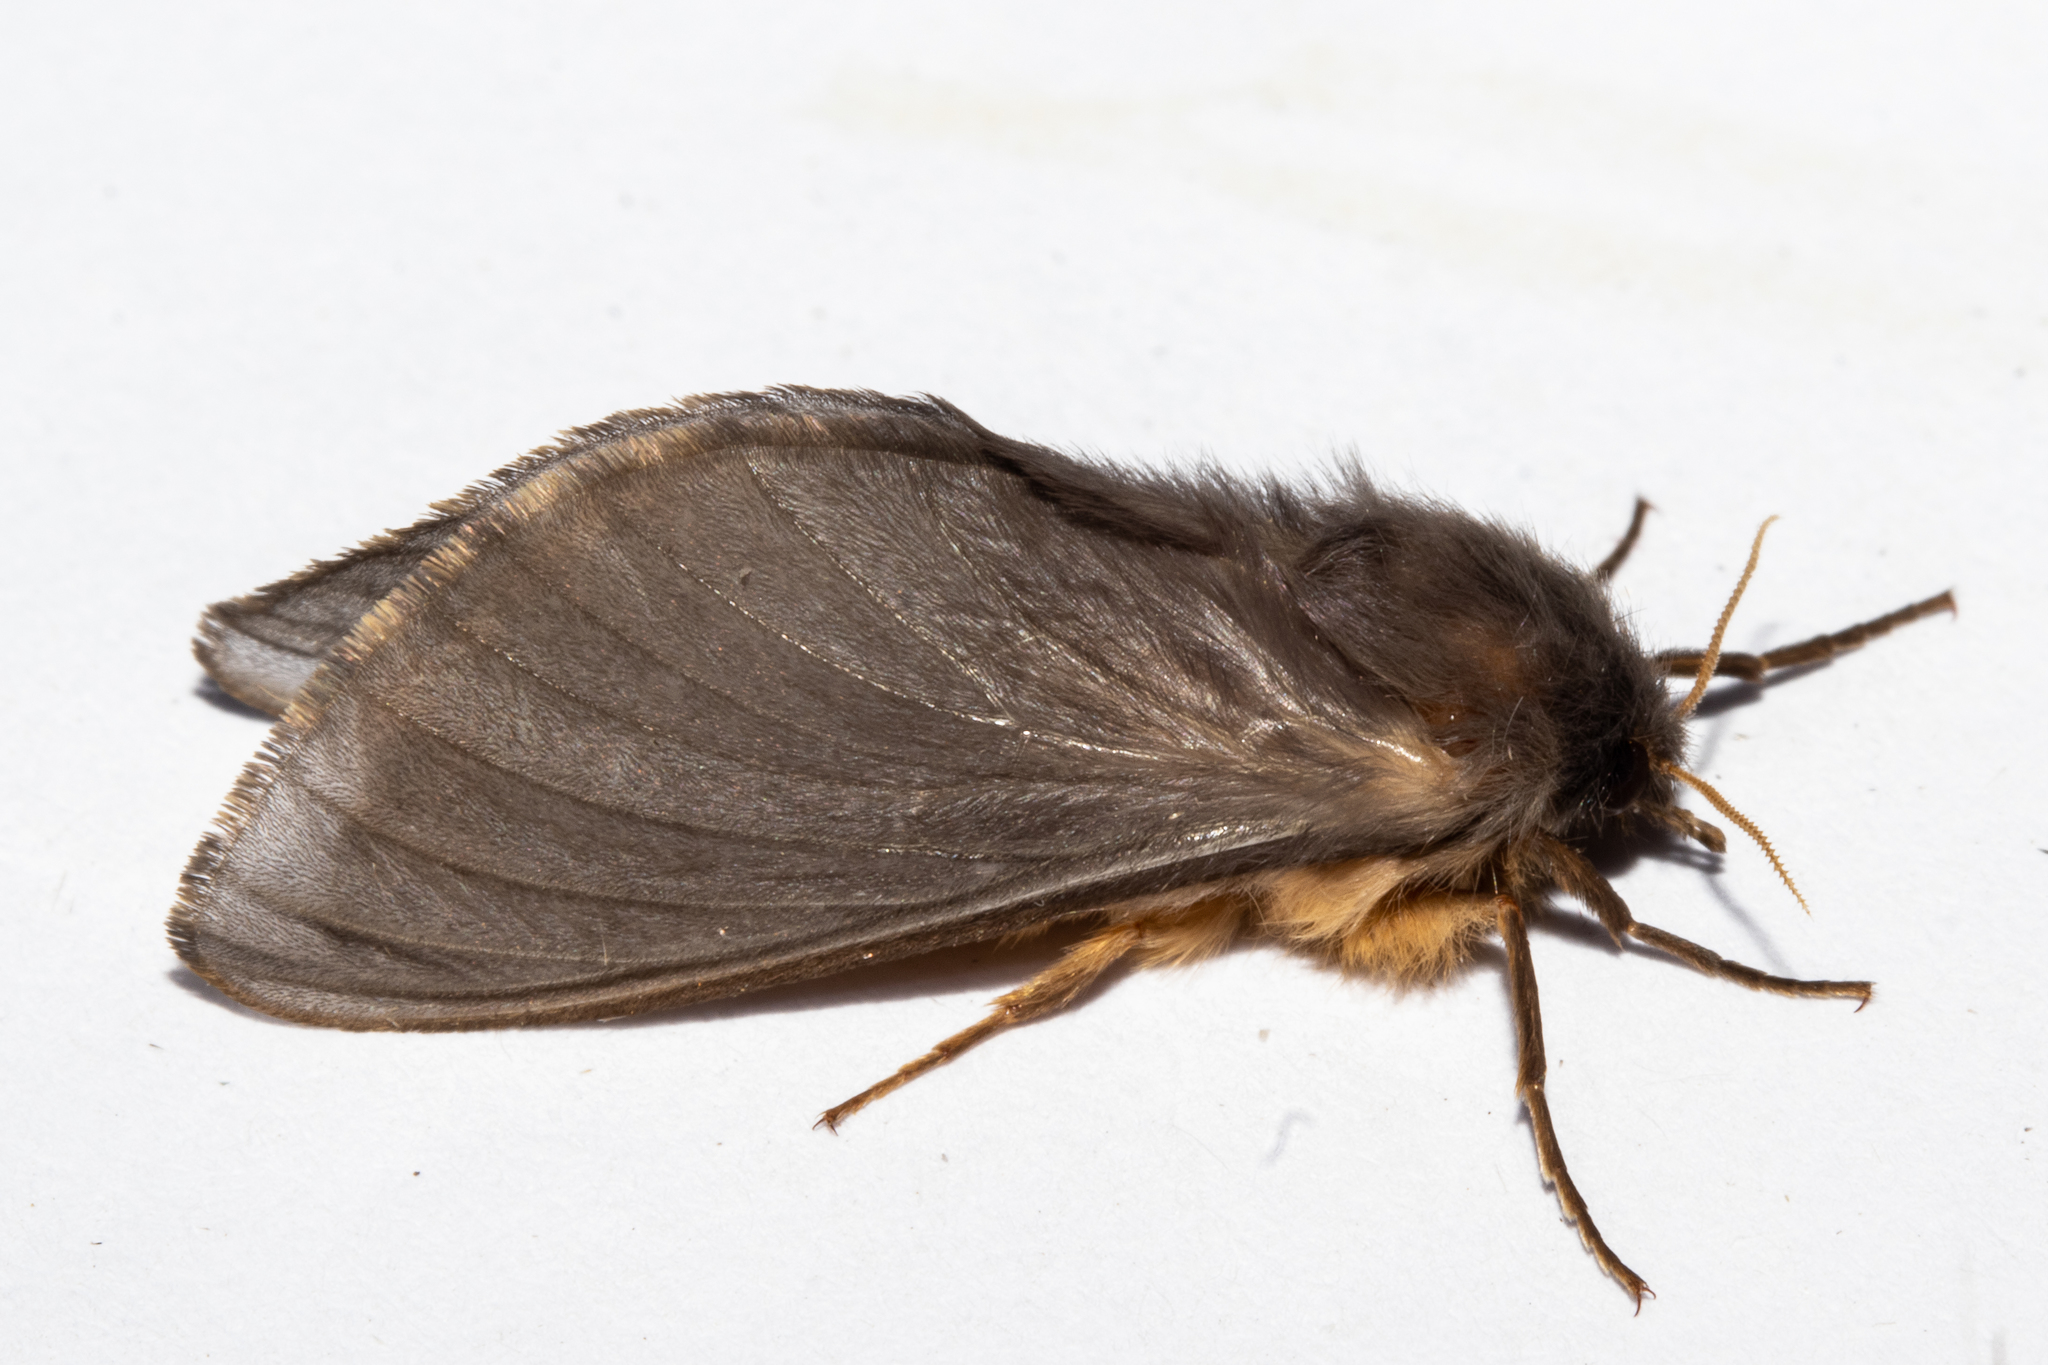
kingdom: Animalia
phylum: Arthropoda
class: Insecta
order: Lepidoptera
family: Hepialidae
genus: Cladoxycanus
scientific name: Cladoxycanus minos
